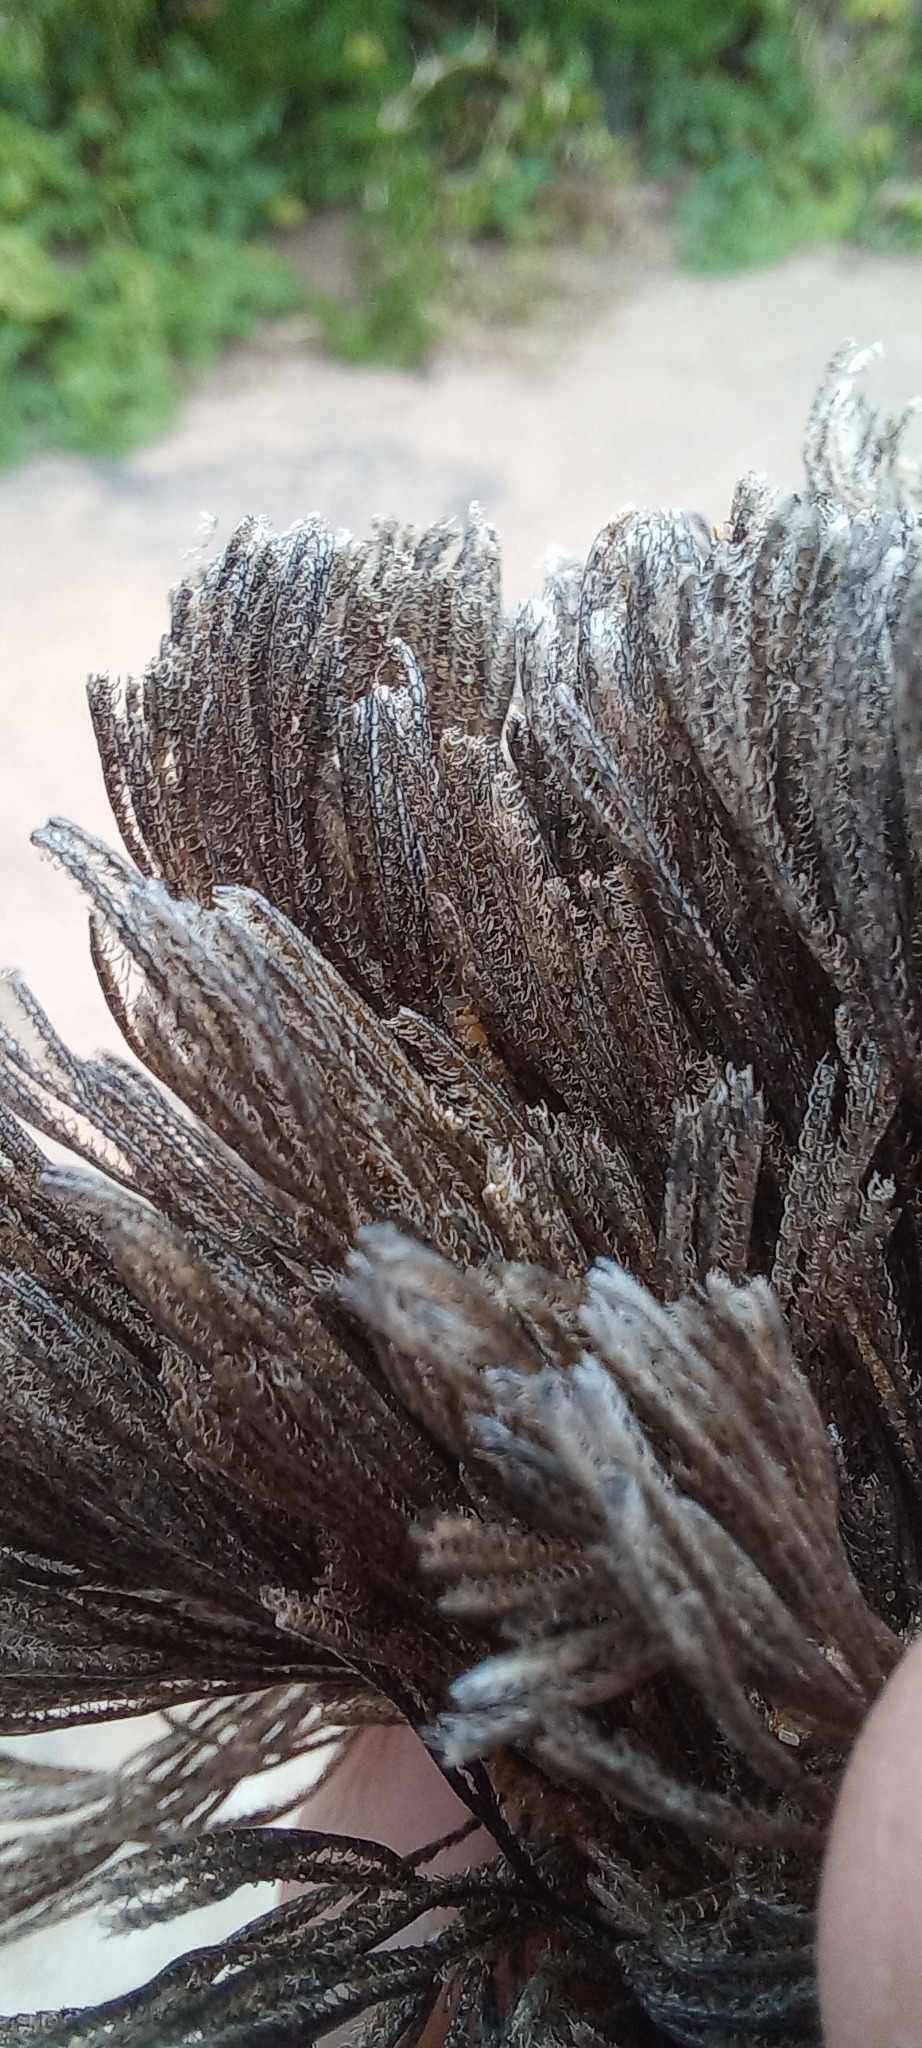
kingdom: Animalia
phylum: Bryozoa
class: Gymnolaemata
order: Cheilostomatida
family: Bugulidae
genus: Virididentula
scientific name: Virididentula dentata
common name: Bryozoan
